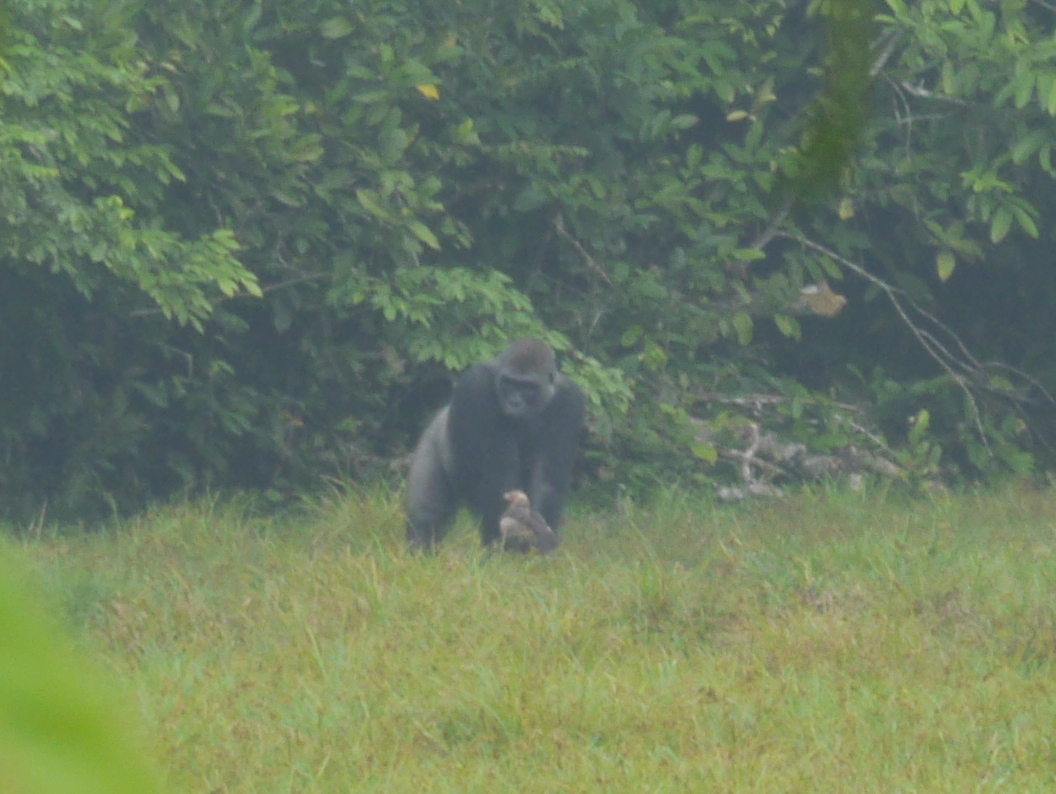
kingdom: Animalia
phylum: Chordata
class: Aves
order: Accipitriformes
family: Accipitridae
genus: Gypohierax
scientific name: Gypohierax angolensis
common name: Palm-nut vulture
